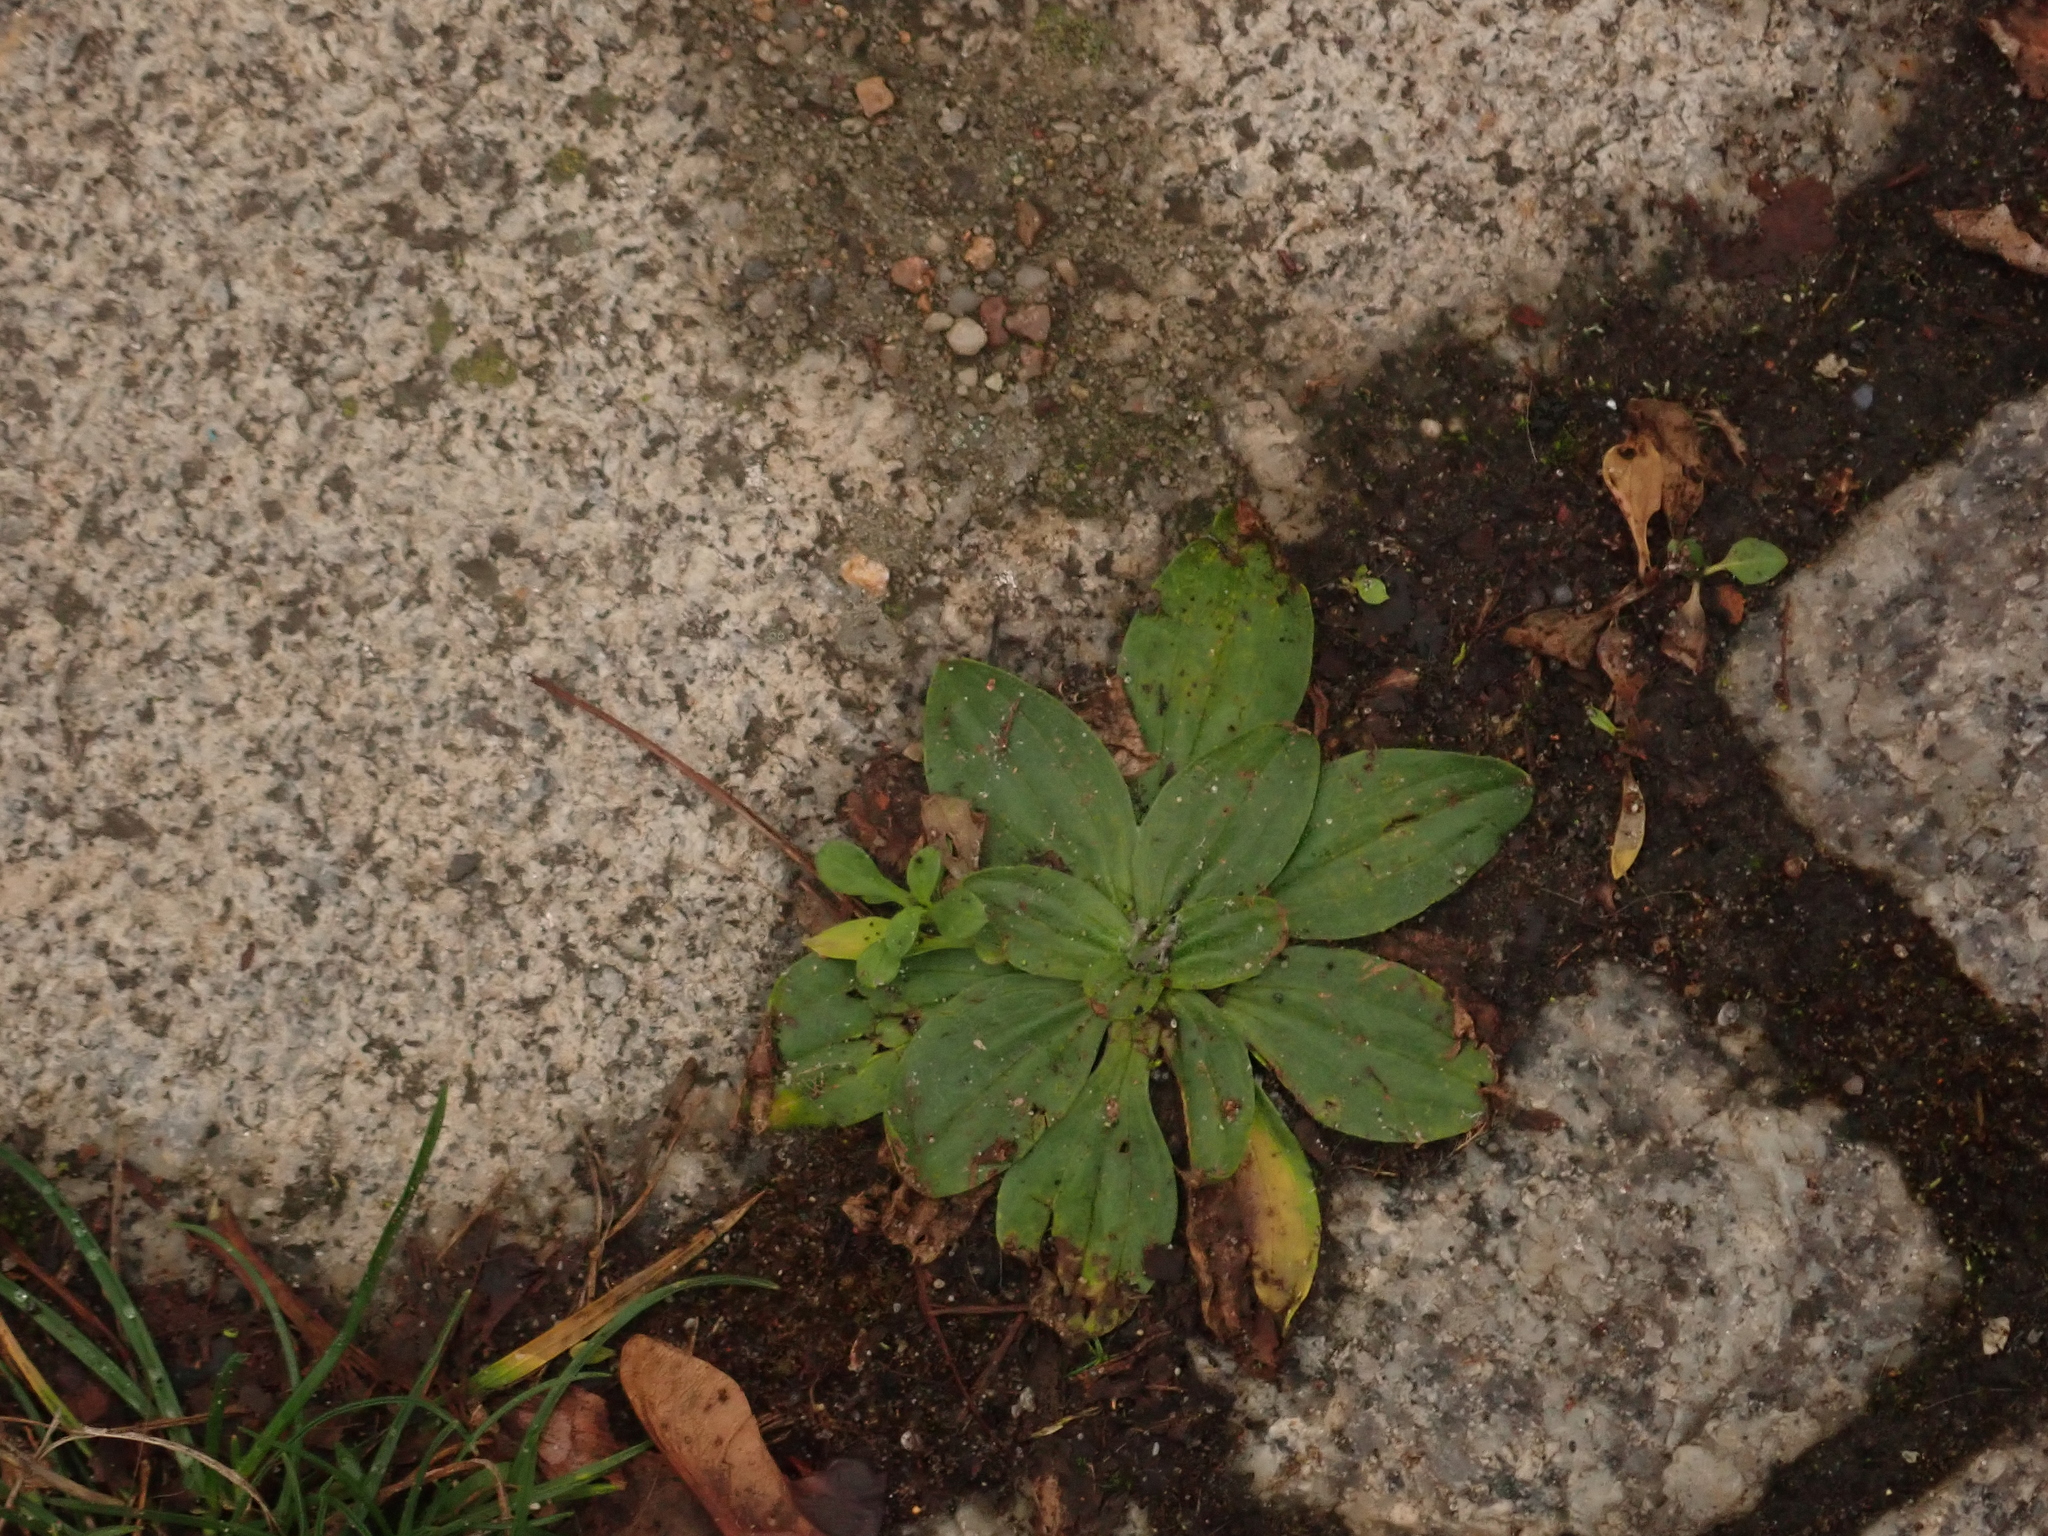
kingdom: Plantae
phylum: Tracheophyta
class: Magnoliopsida
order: Lamiales
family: Plantaginaceae
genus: Plantago
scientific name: Plantago lanceolata
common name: Ribwort plantain
